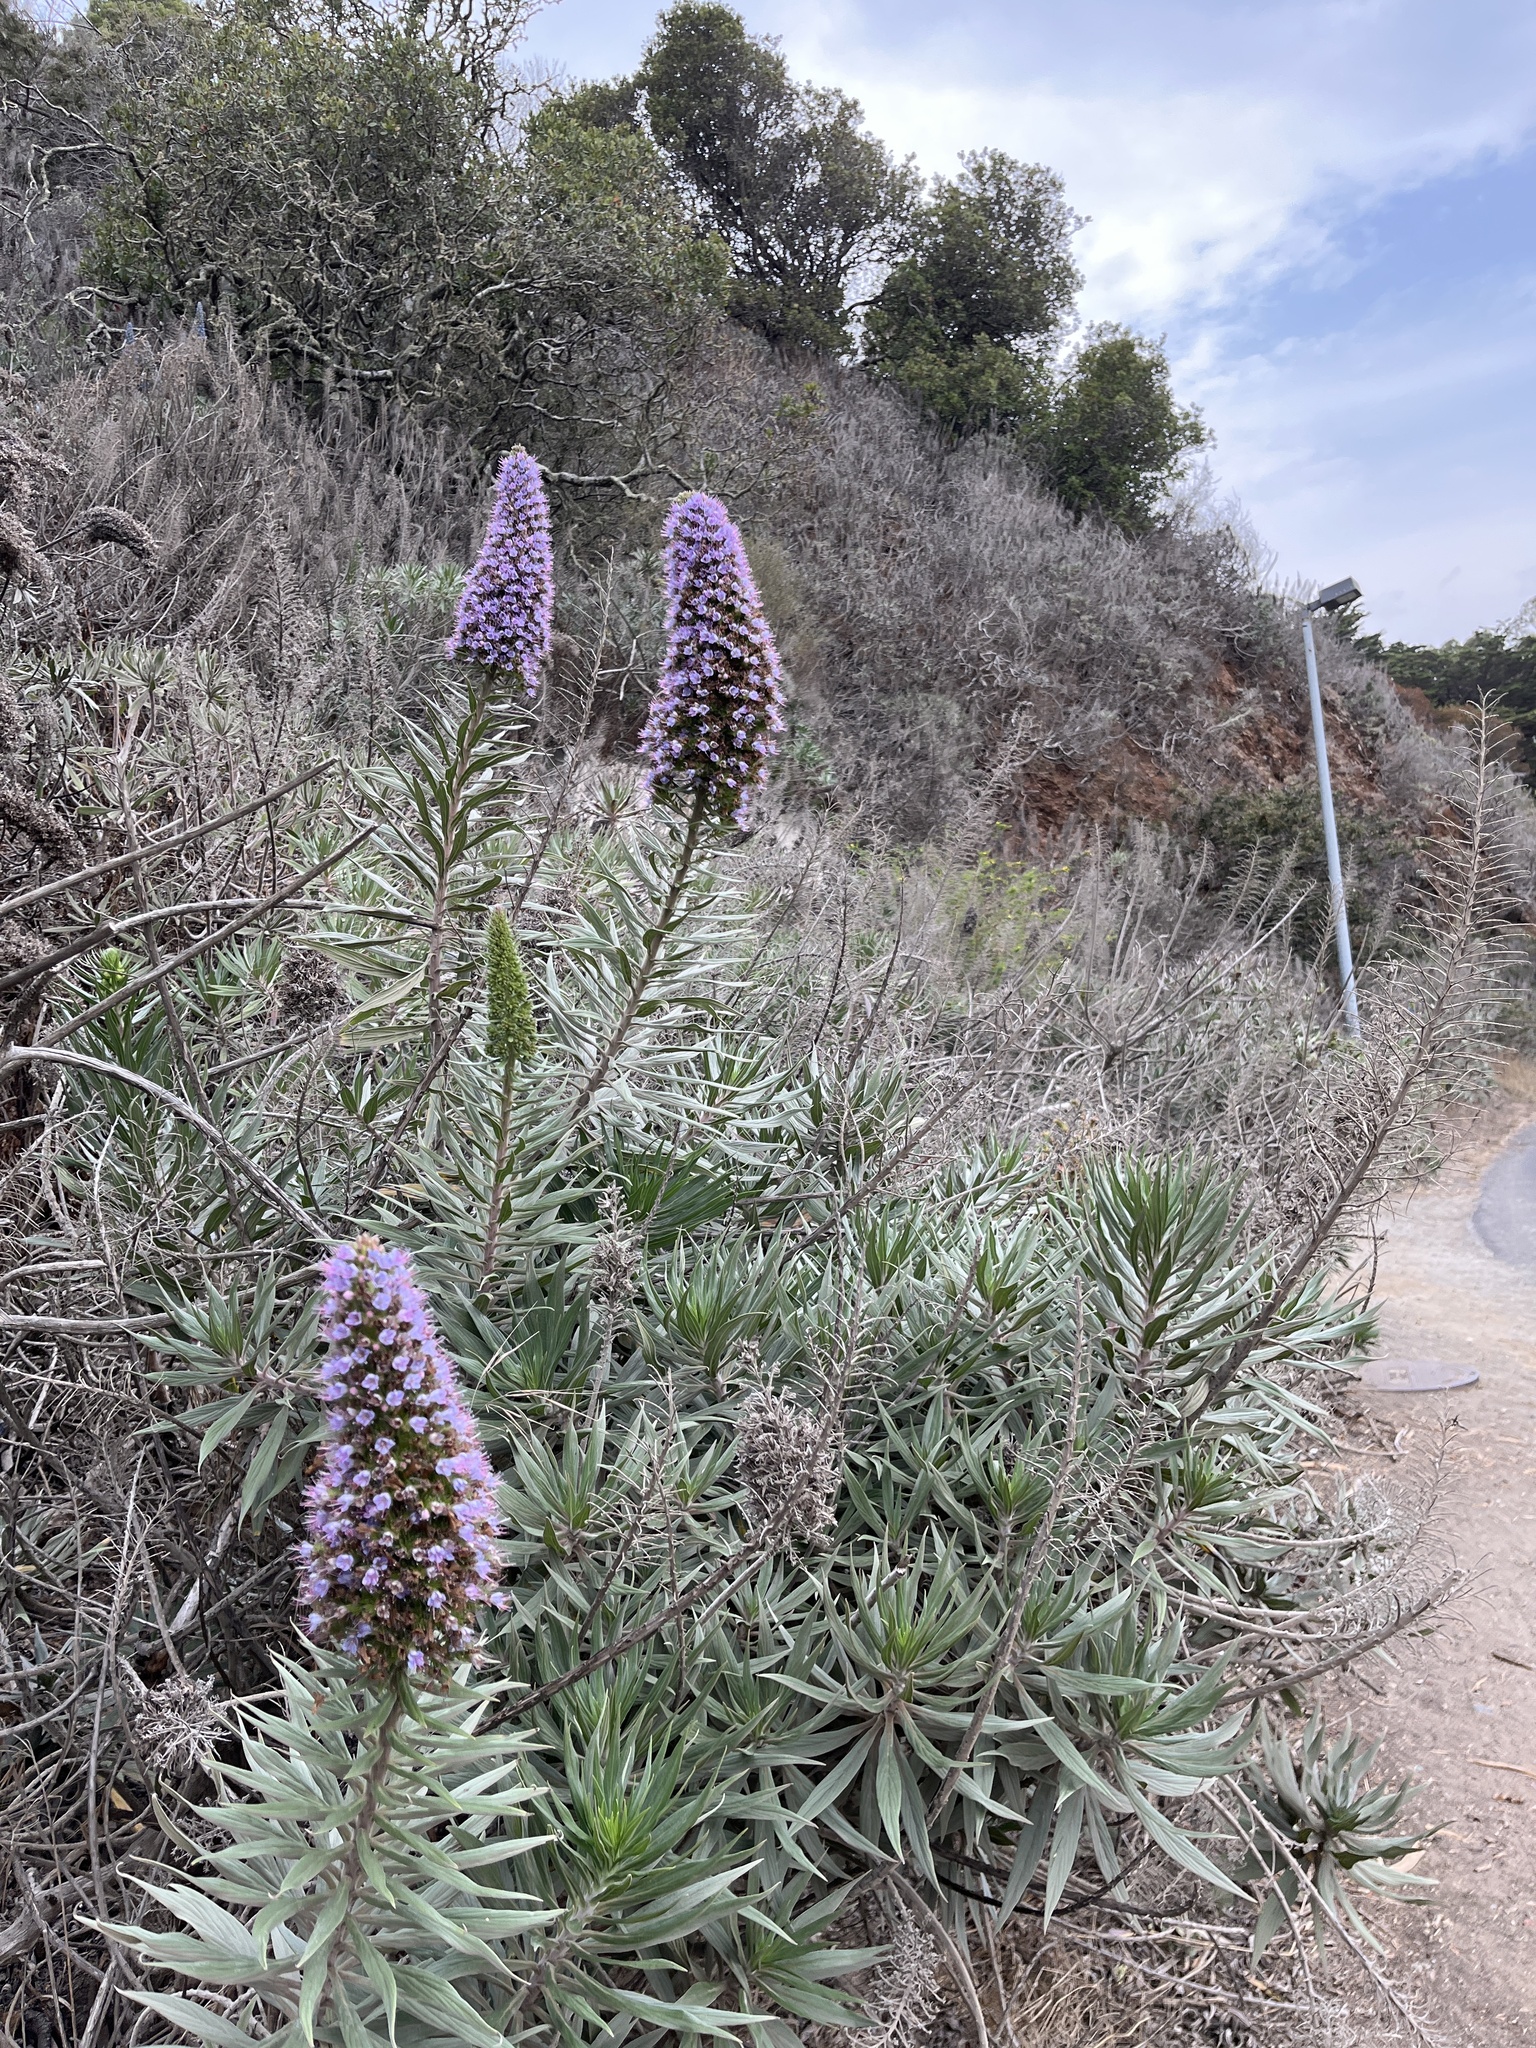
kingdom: Plantae
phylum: Tracheophyta
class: Magnoliopsida
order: Boraginales
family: Boraginaceae
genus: Echium
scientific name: Echium candicans
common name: Pride of madeira
